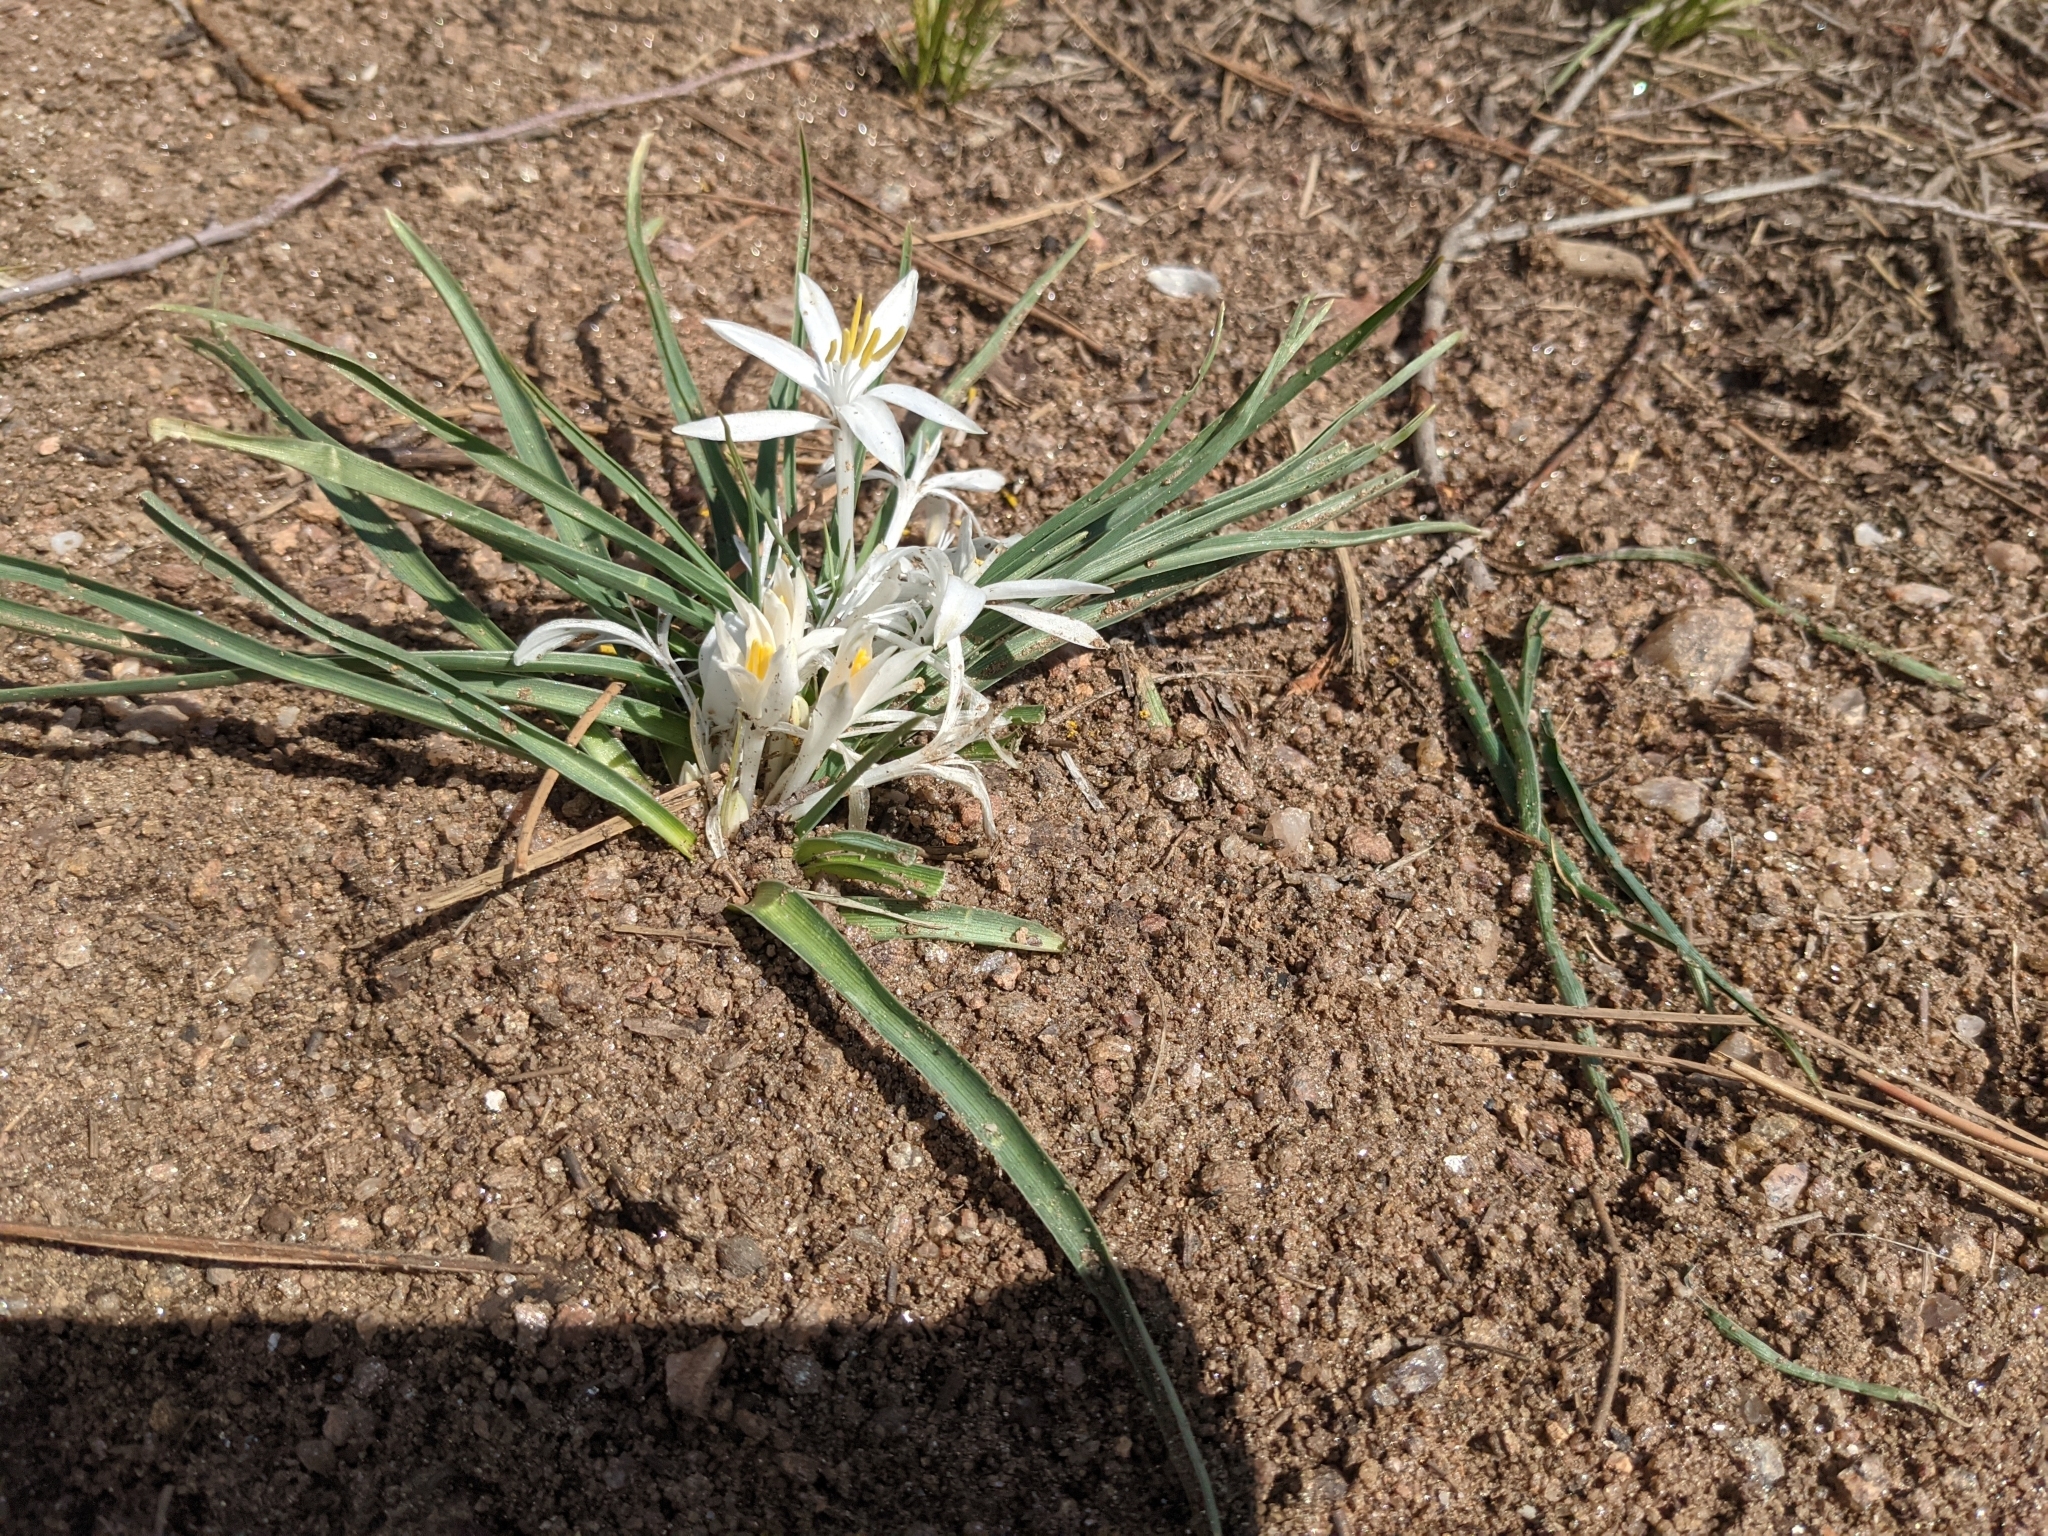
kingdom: Plantae
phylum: Tracheophyta
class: Liliopsida
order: Asparagales
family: Asparagaceae
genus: Leucocrinum
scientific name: Leucocrinum montanum
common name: Mountain-lily
